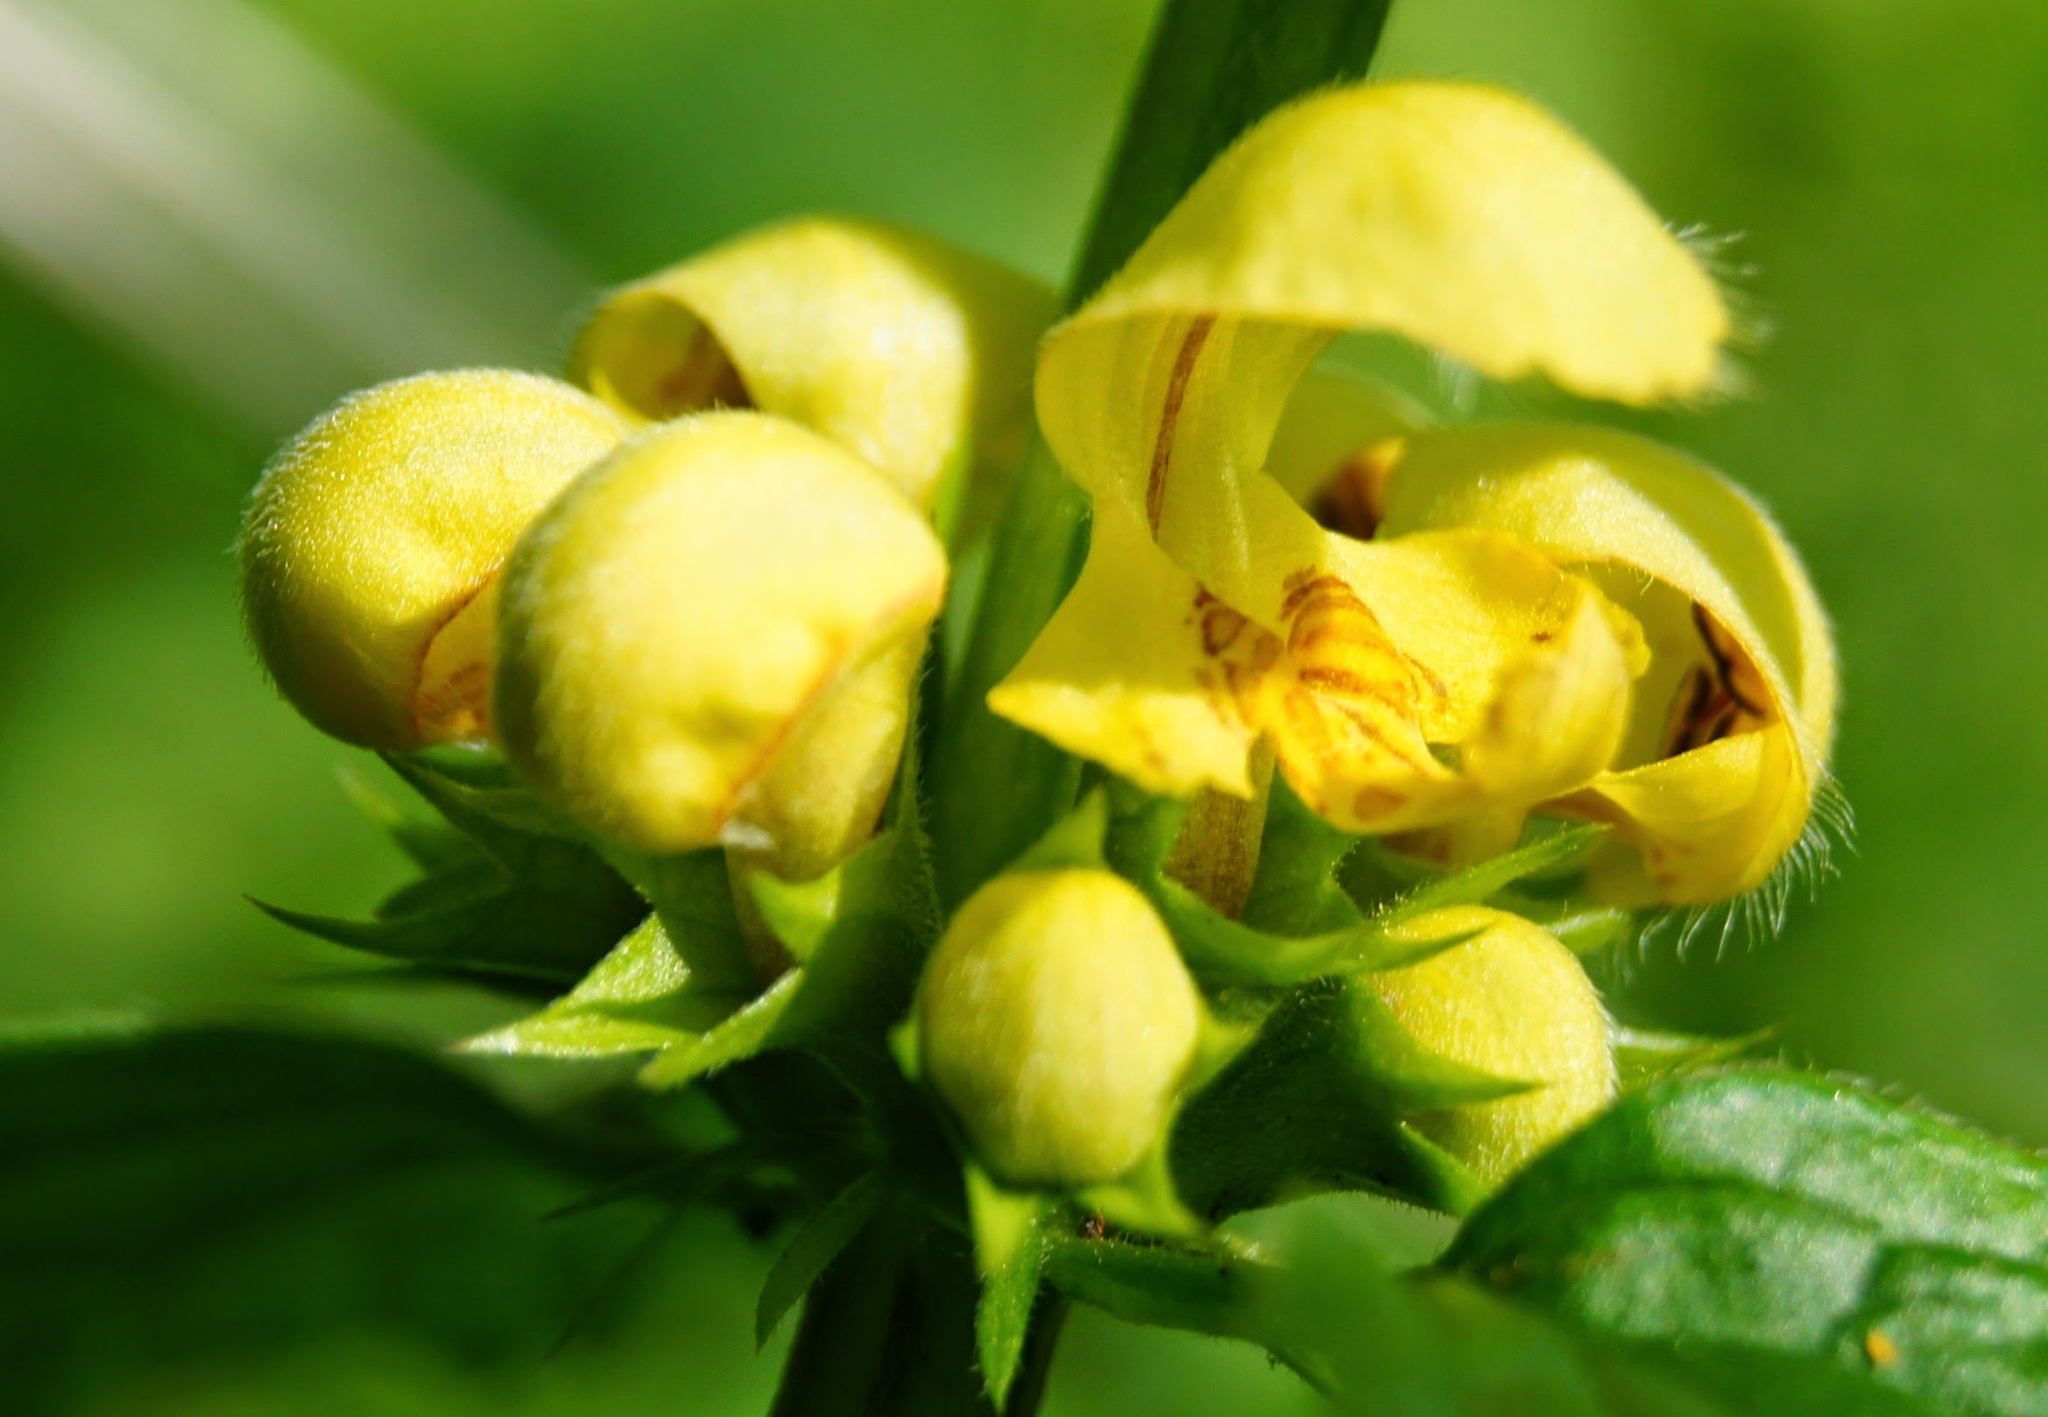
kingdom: Plantae
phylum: Tracheophyta
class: Magnoliopsida
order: Lamiales
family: Lamiaceae
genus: Lamium
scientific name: Lamium galeobdolon
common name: Yellow archangel
